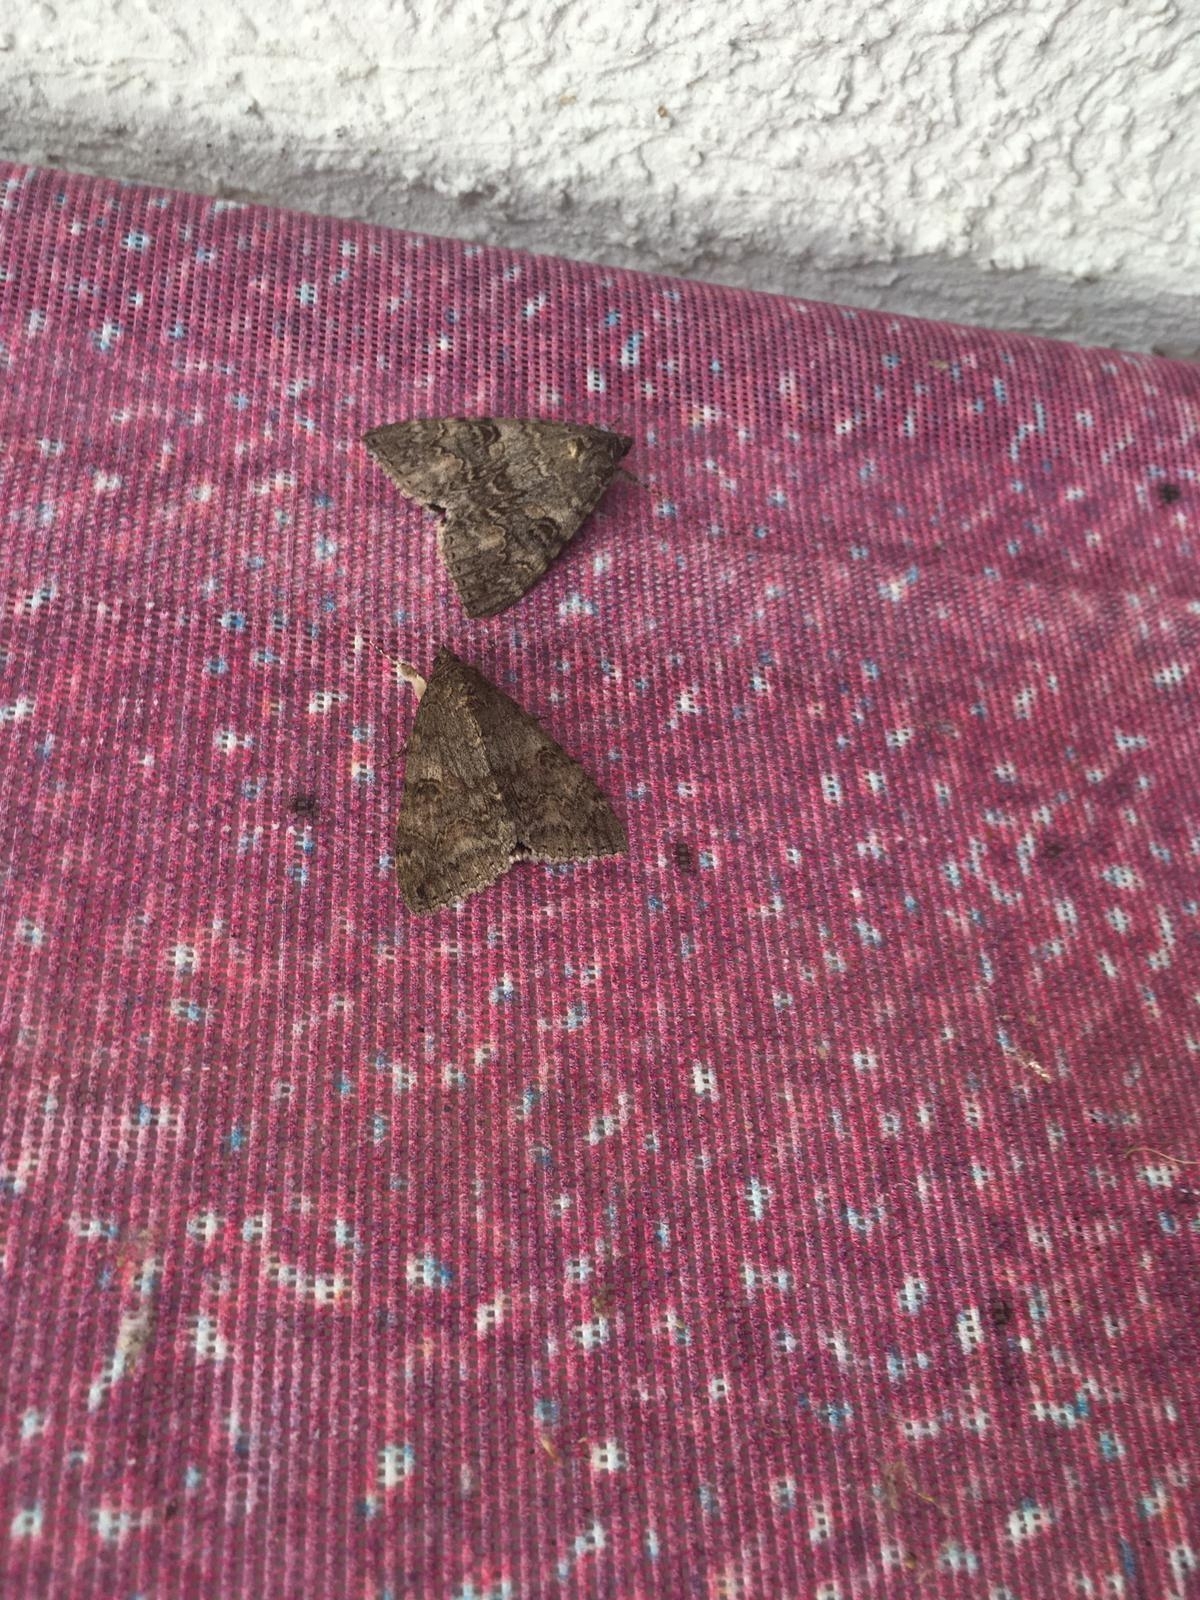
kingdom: Animalia
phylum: Arthropoda
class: Insecta
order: Lepidoptera
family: Erebidae
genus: Catocala
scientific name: Catocala nupta
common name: Red underwing
